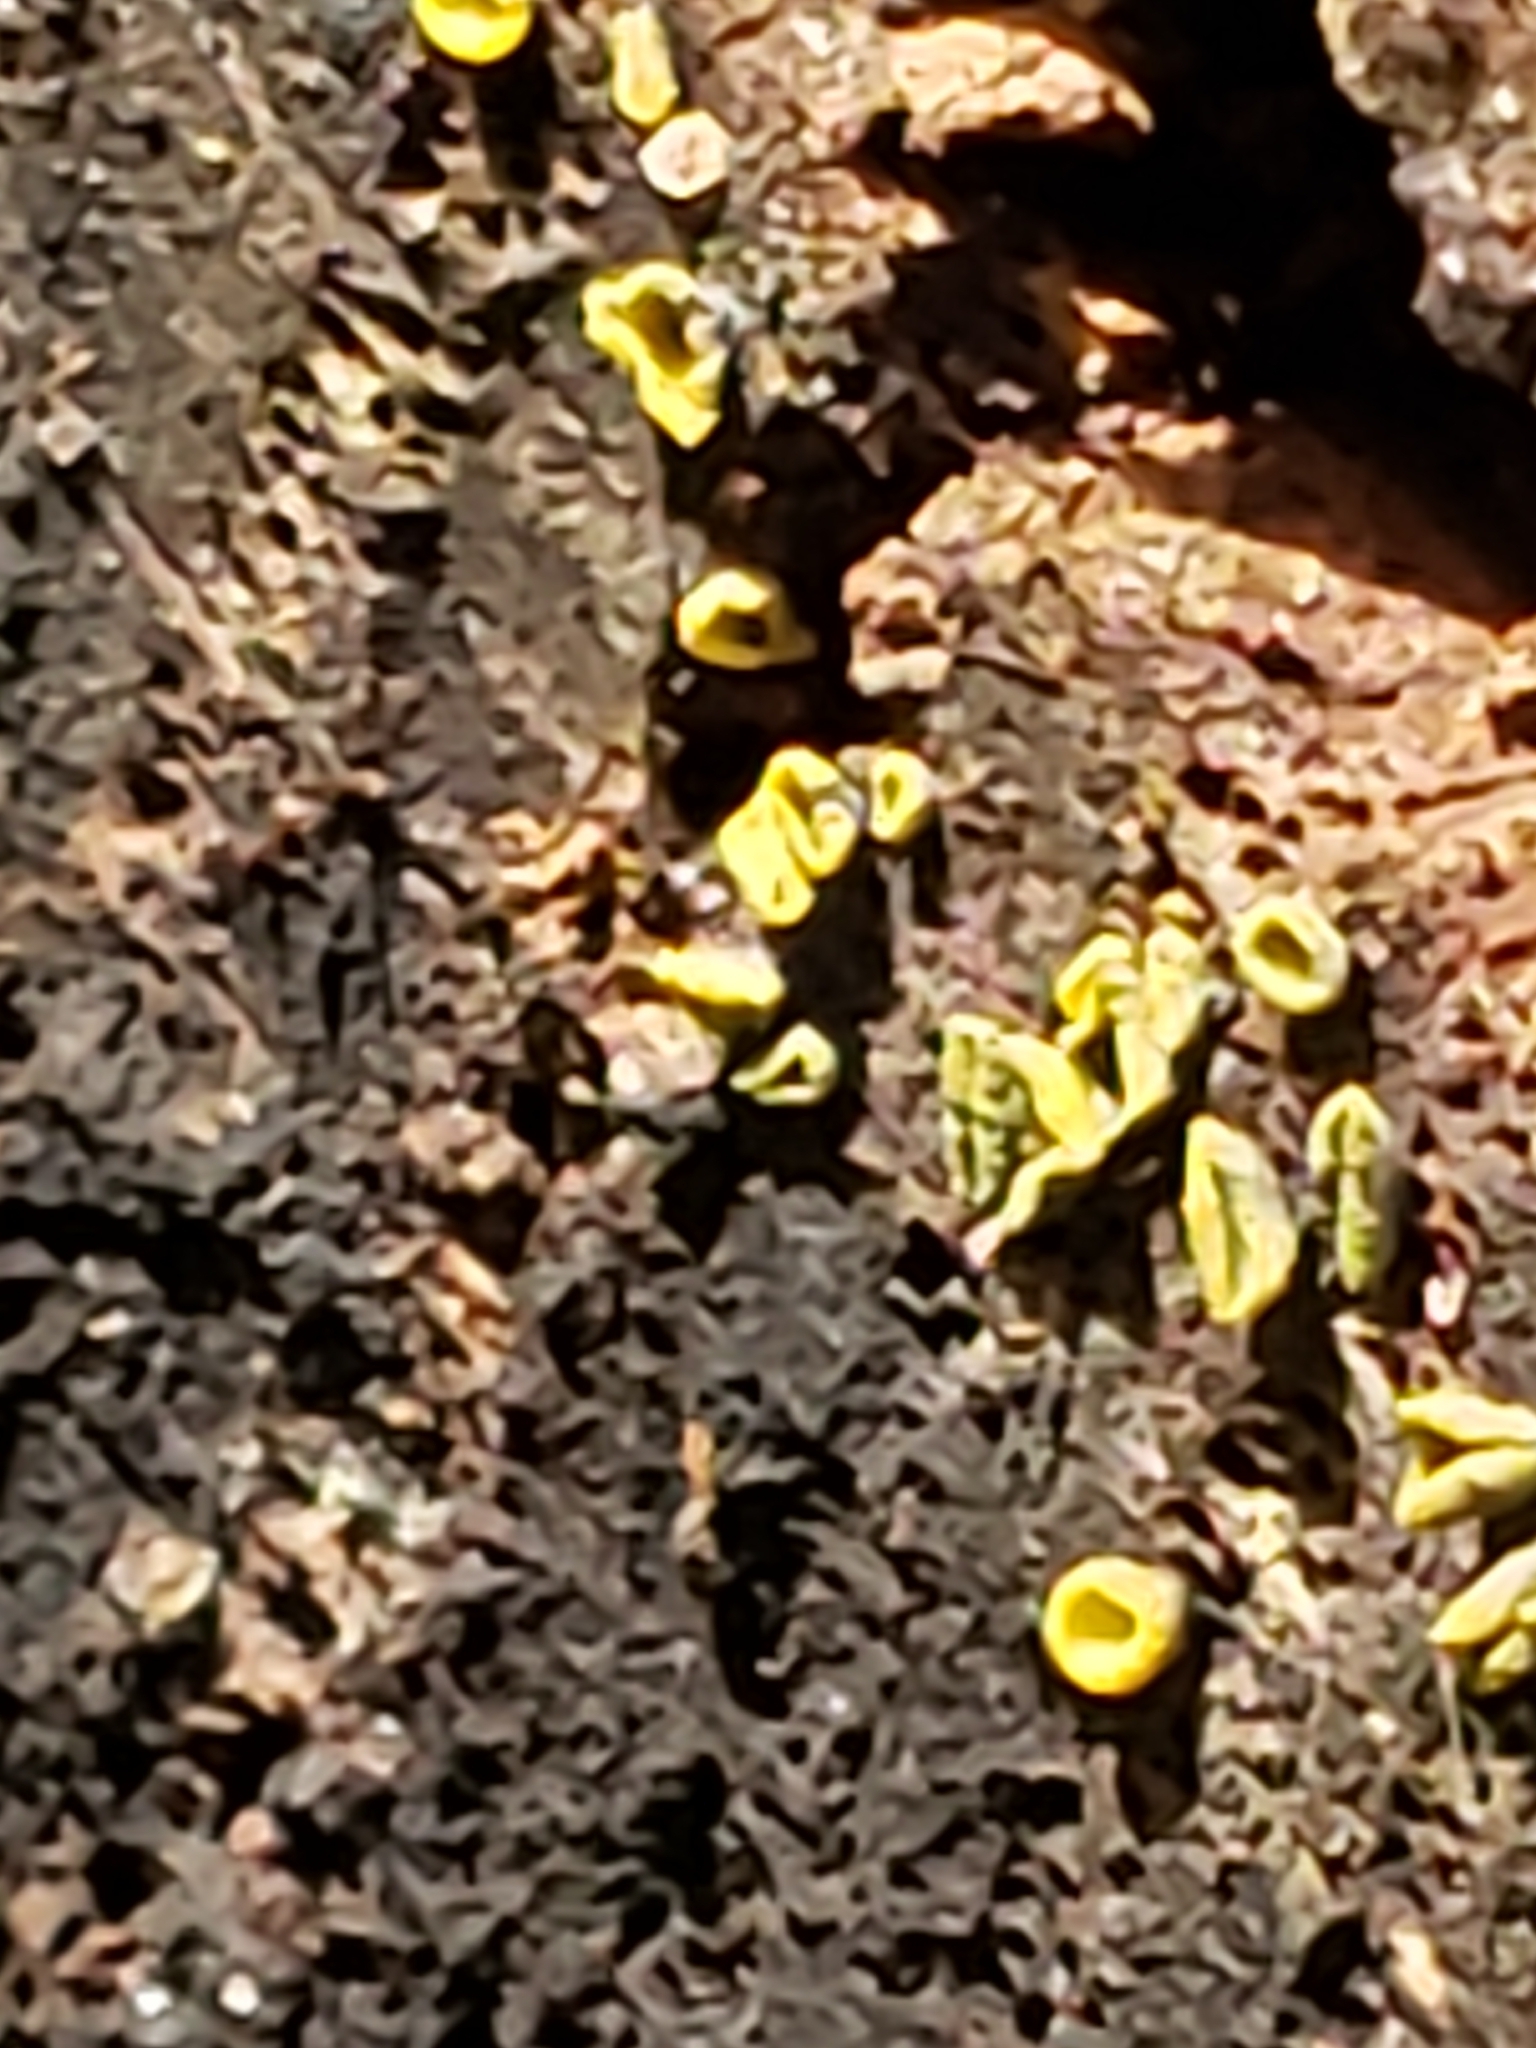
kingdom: Fungi
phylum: Ascomycota
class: Leotiomycetes
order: Helotiales
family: Chlorospleniaceae
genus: Chlorosplenium
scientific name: Chlorosplenium chlora
